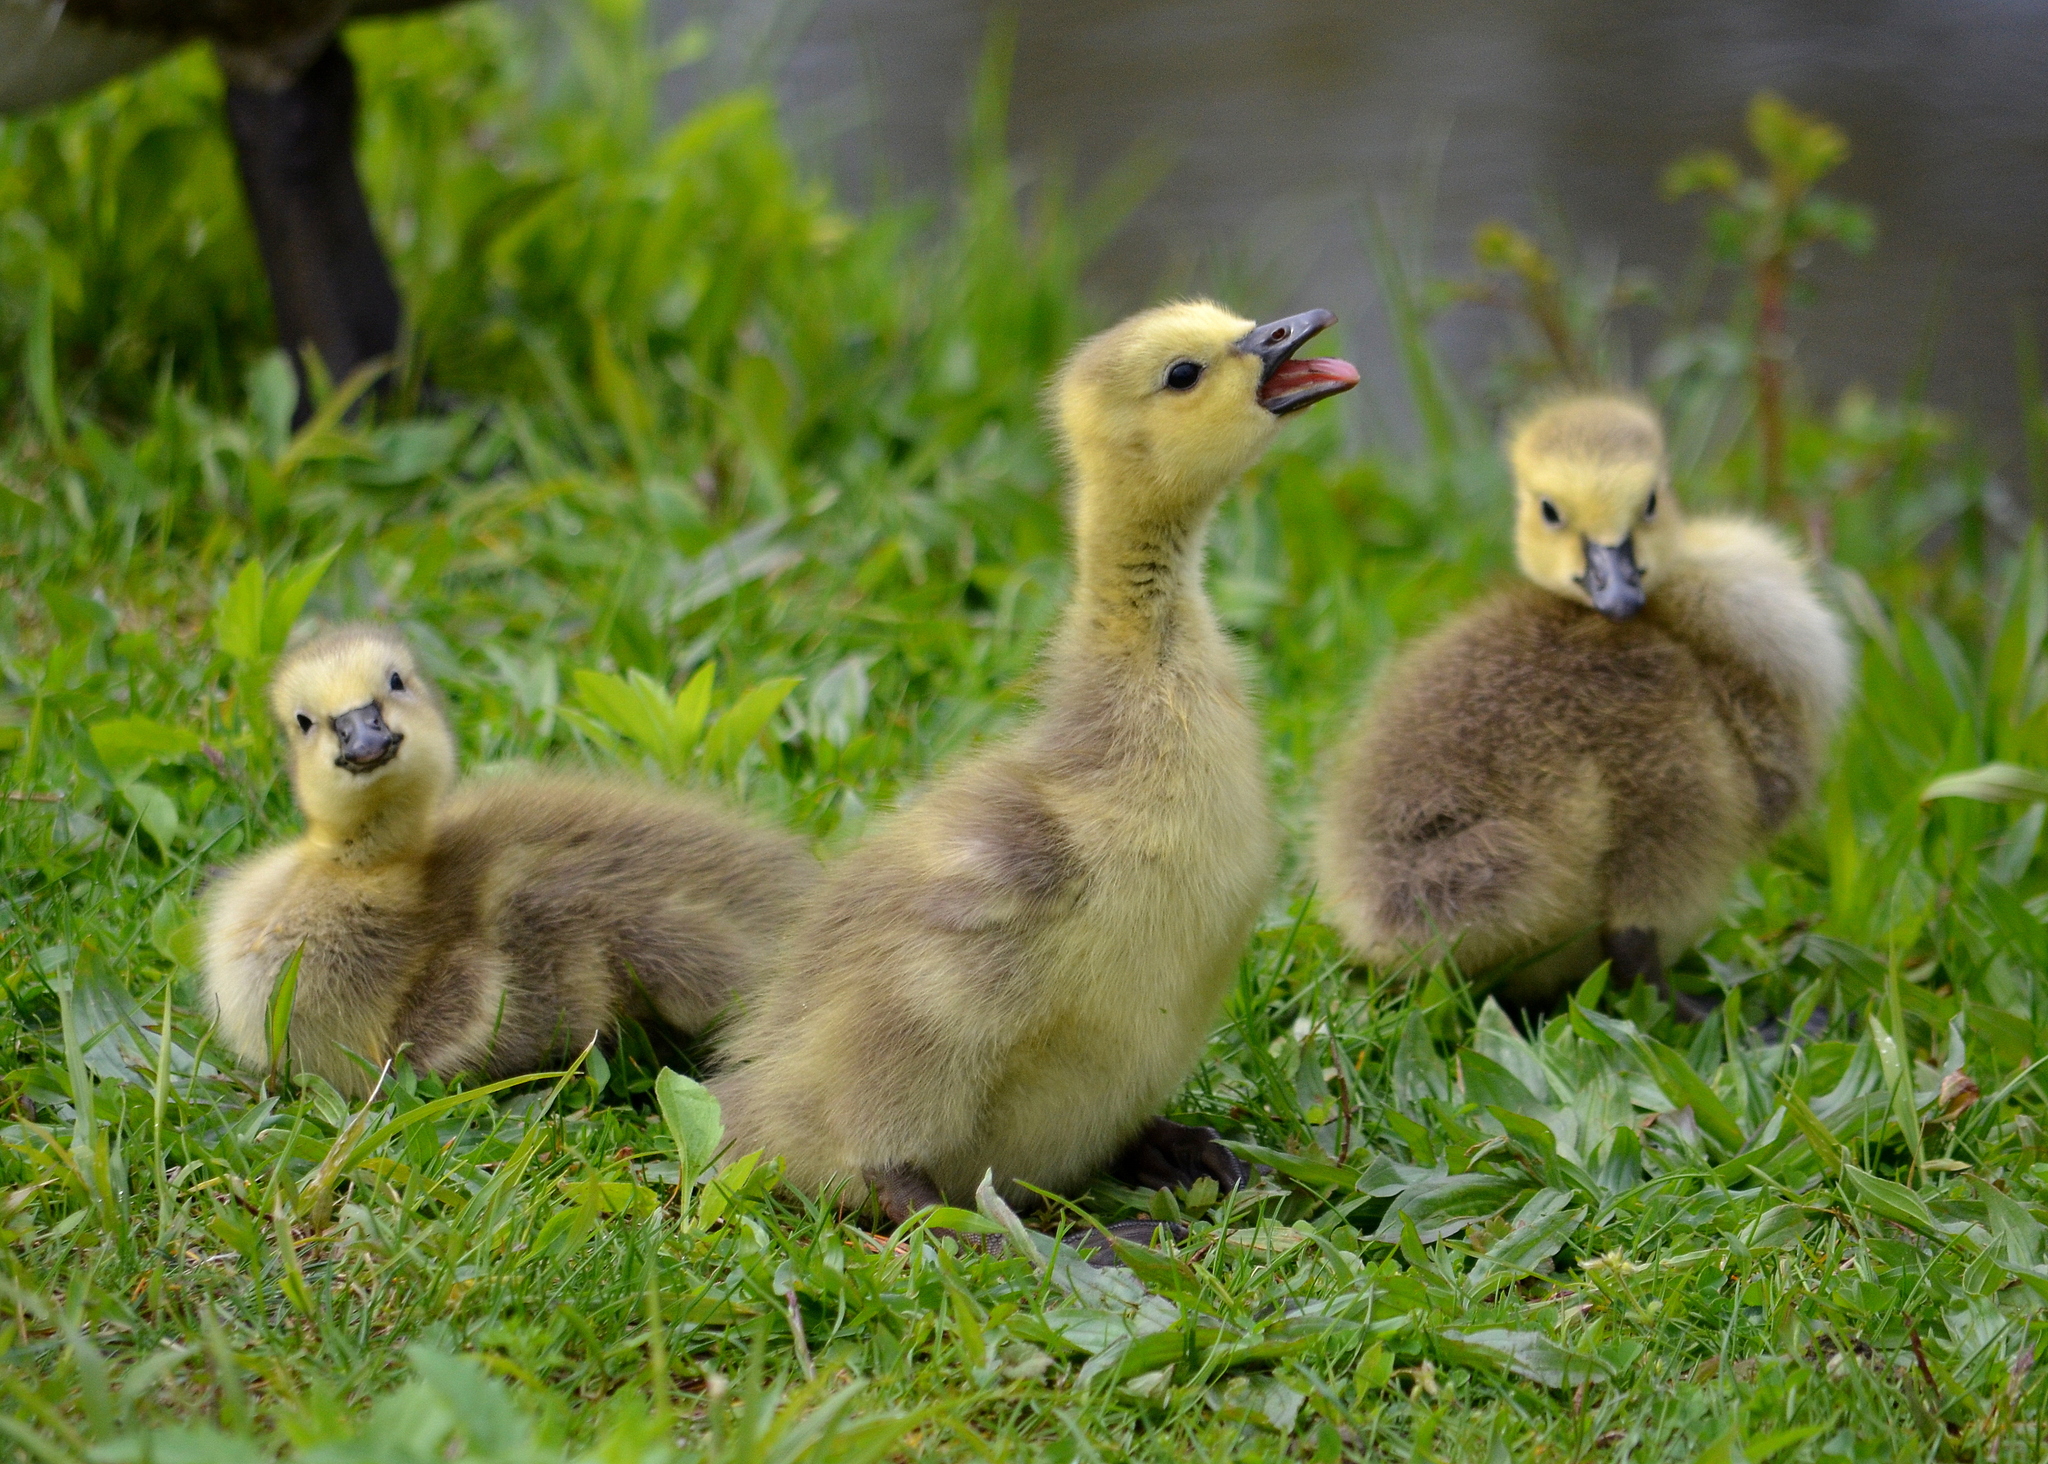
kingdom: Animalia
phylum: Chordata
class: Aves
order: Anseriformes
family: Anatidae
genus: Branta
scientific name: Branta canadensis
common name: Canada goose
